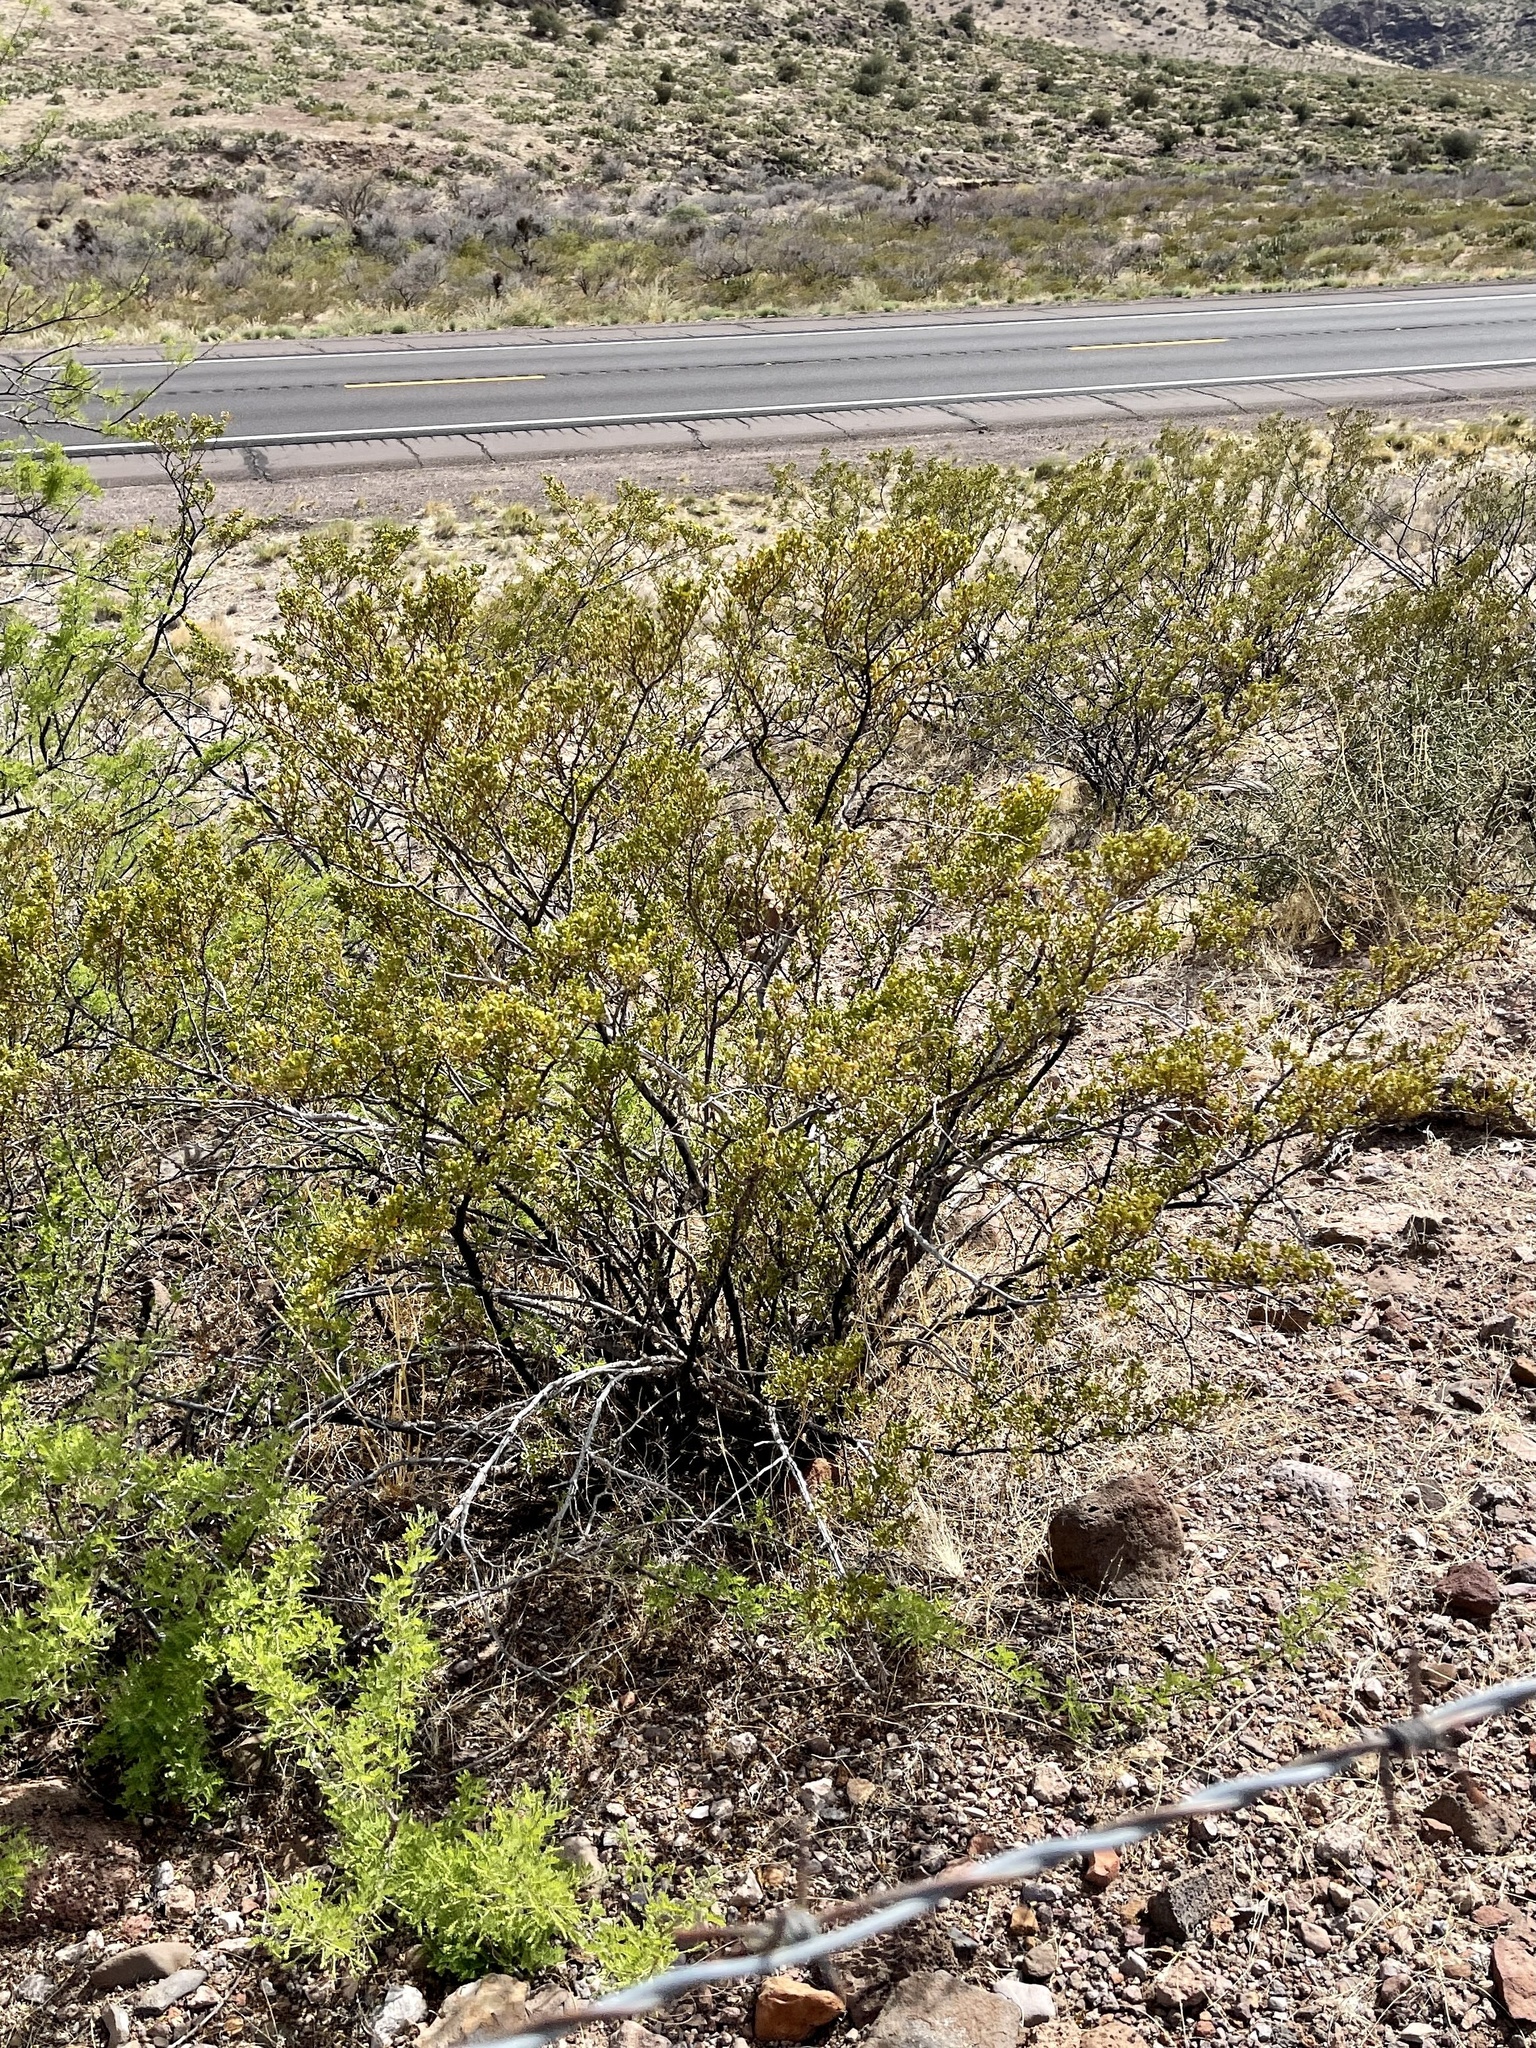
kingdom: Plantae
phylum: Tracheophyta
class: Magnoliopsida
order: Zygophyllales
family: Zygophyllaceae
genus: Larrea
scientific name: Larrea tridentata
